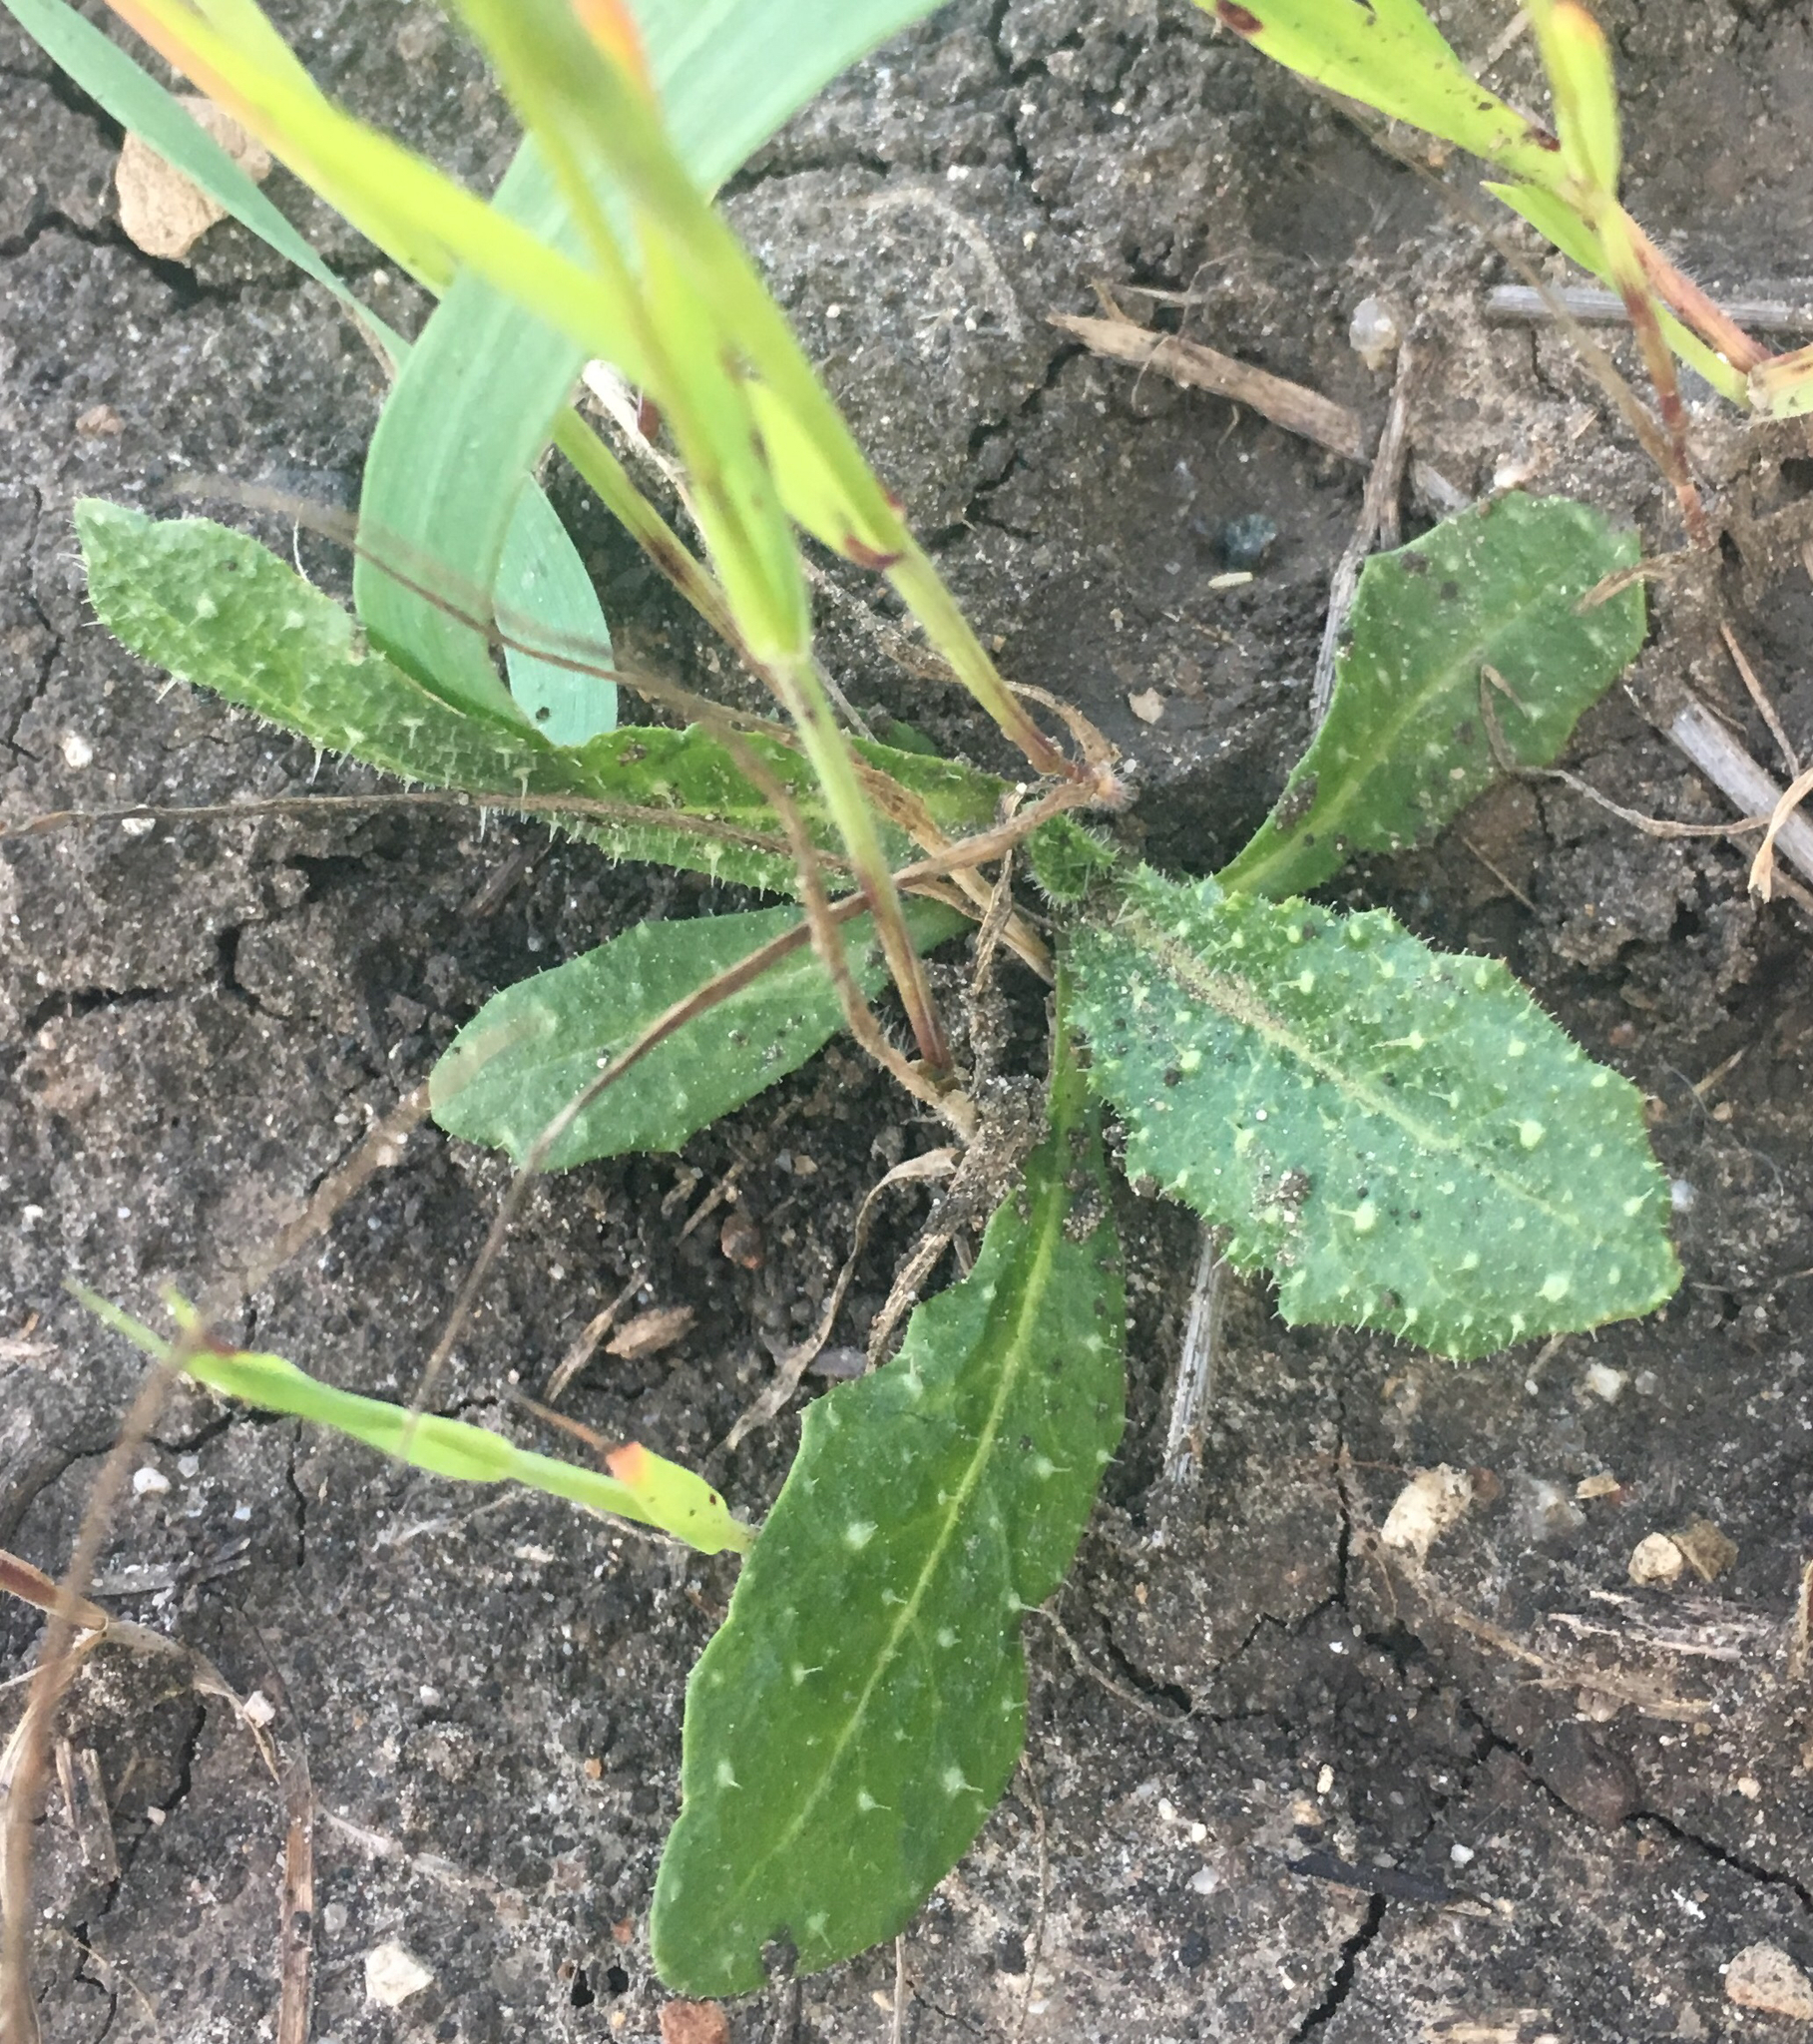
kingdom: Plantae
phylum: Tracheophyta
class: Magnoliopsida
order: Asterales
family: Asteraceae
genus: Helminthotheca
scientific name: Helminthotheca echioides
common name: Ox-tongue
